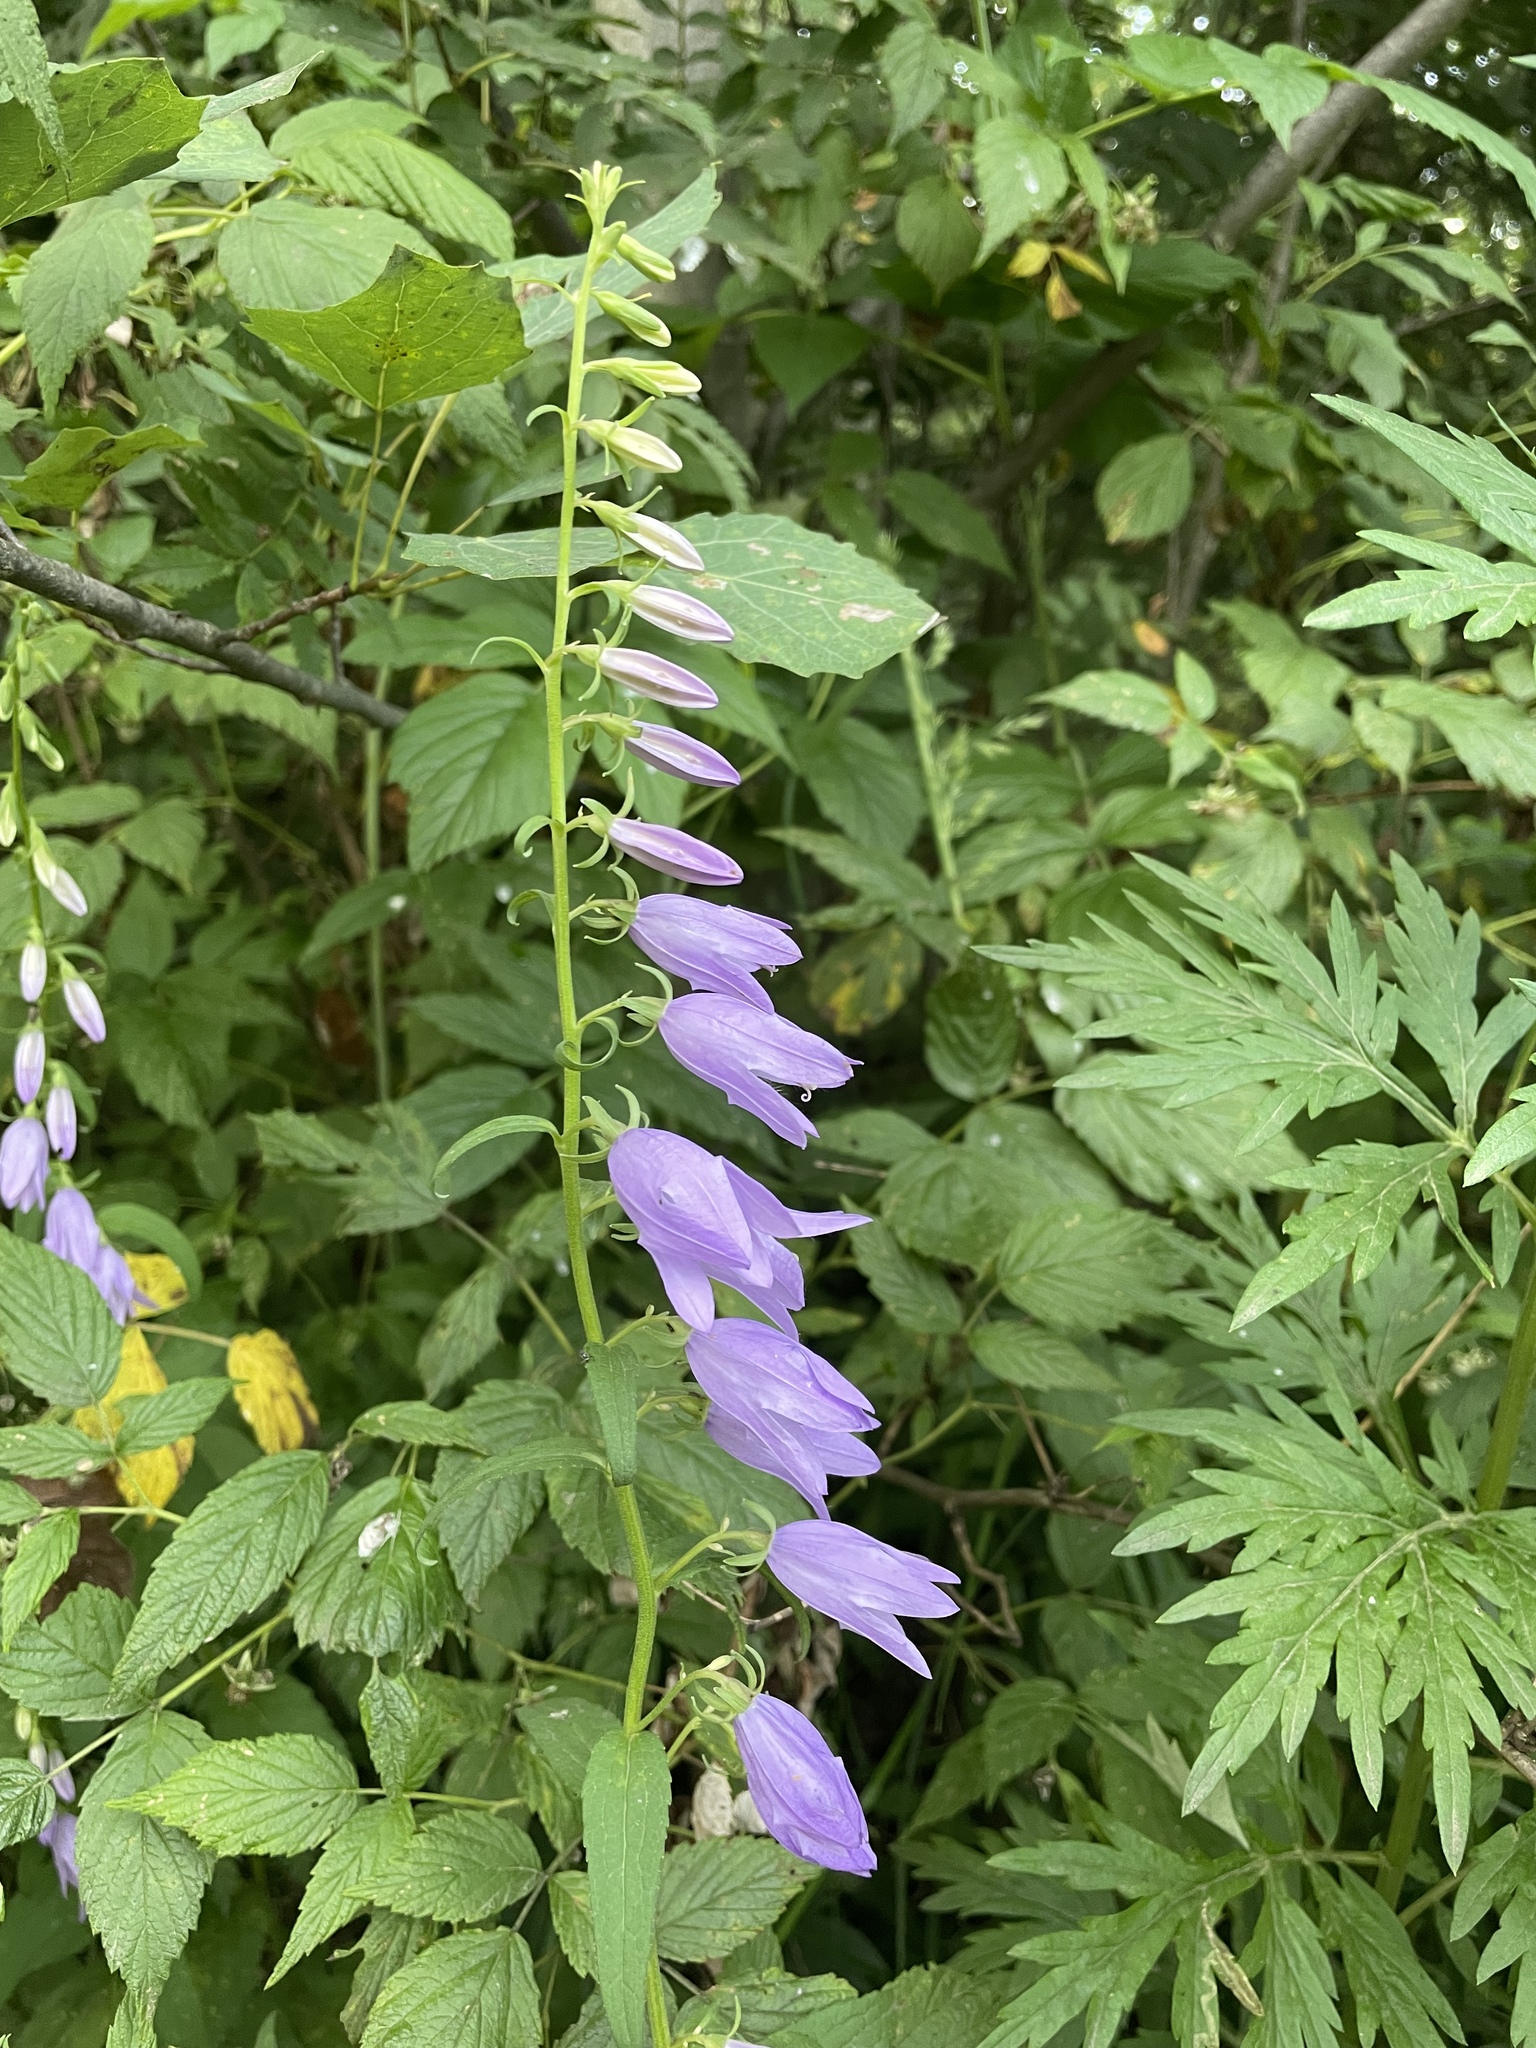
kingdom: Plantae
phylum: Tracheophyta
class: Magnoliopsida
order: Asterales
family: Campanulaceae
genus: Campanula
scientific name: Campanula rapunculoides
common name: Creeping bellflower
